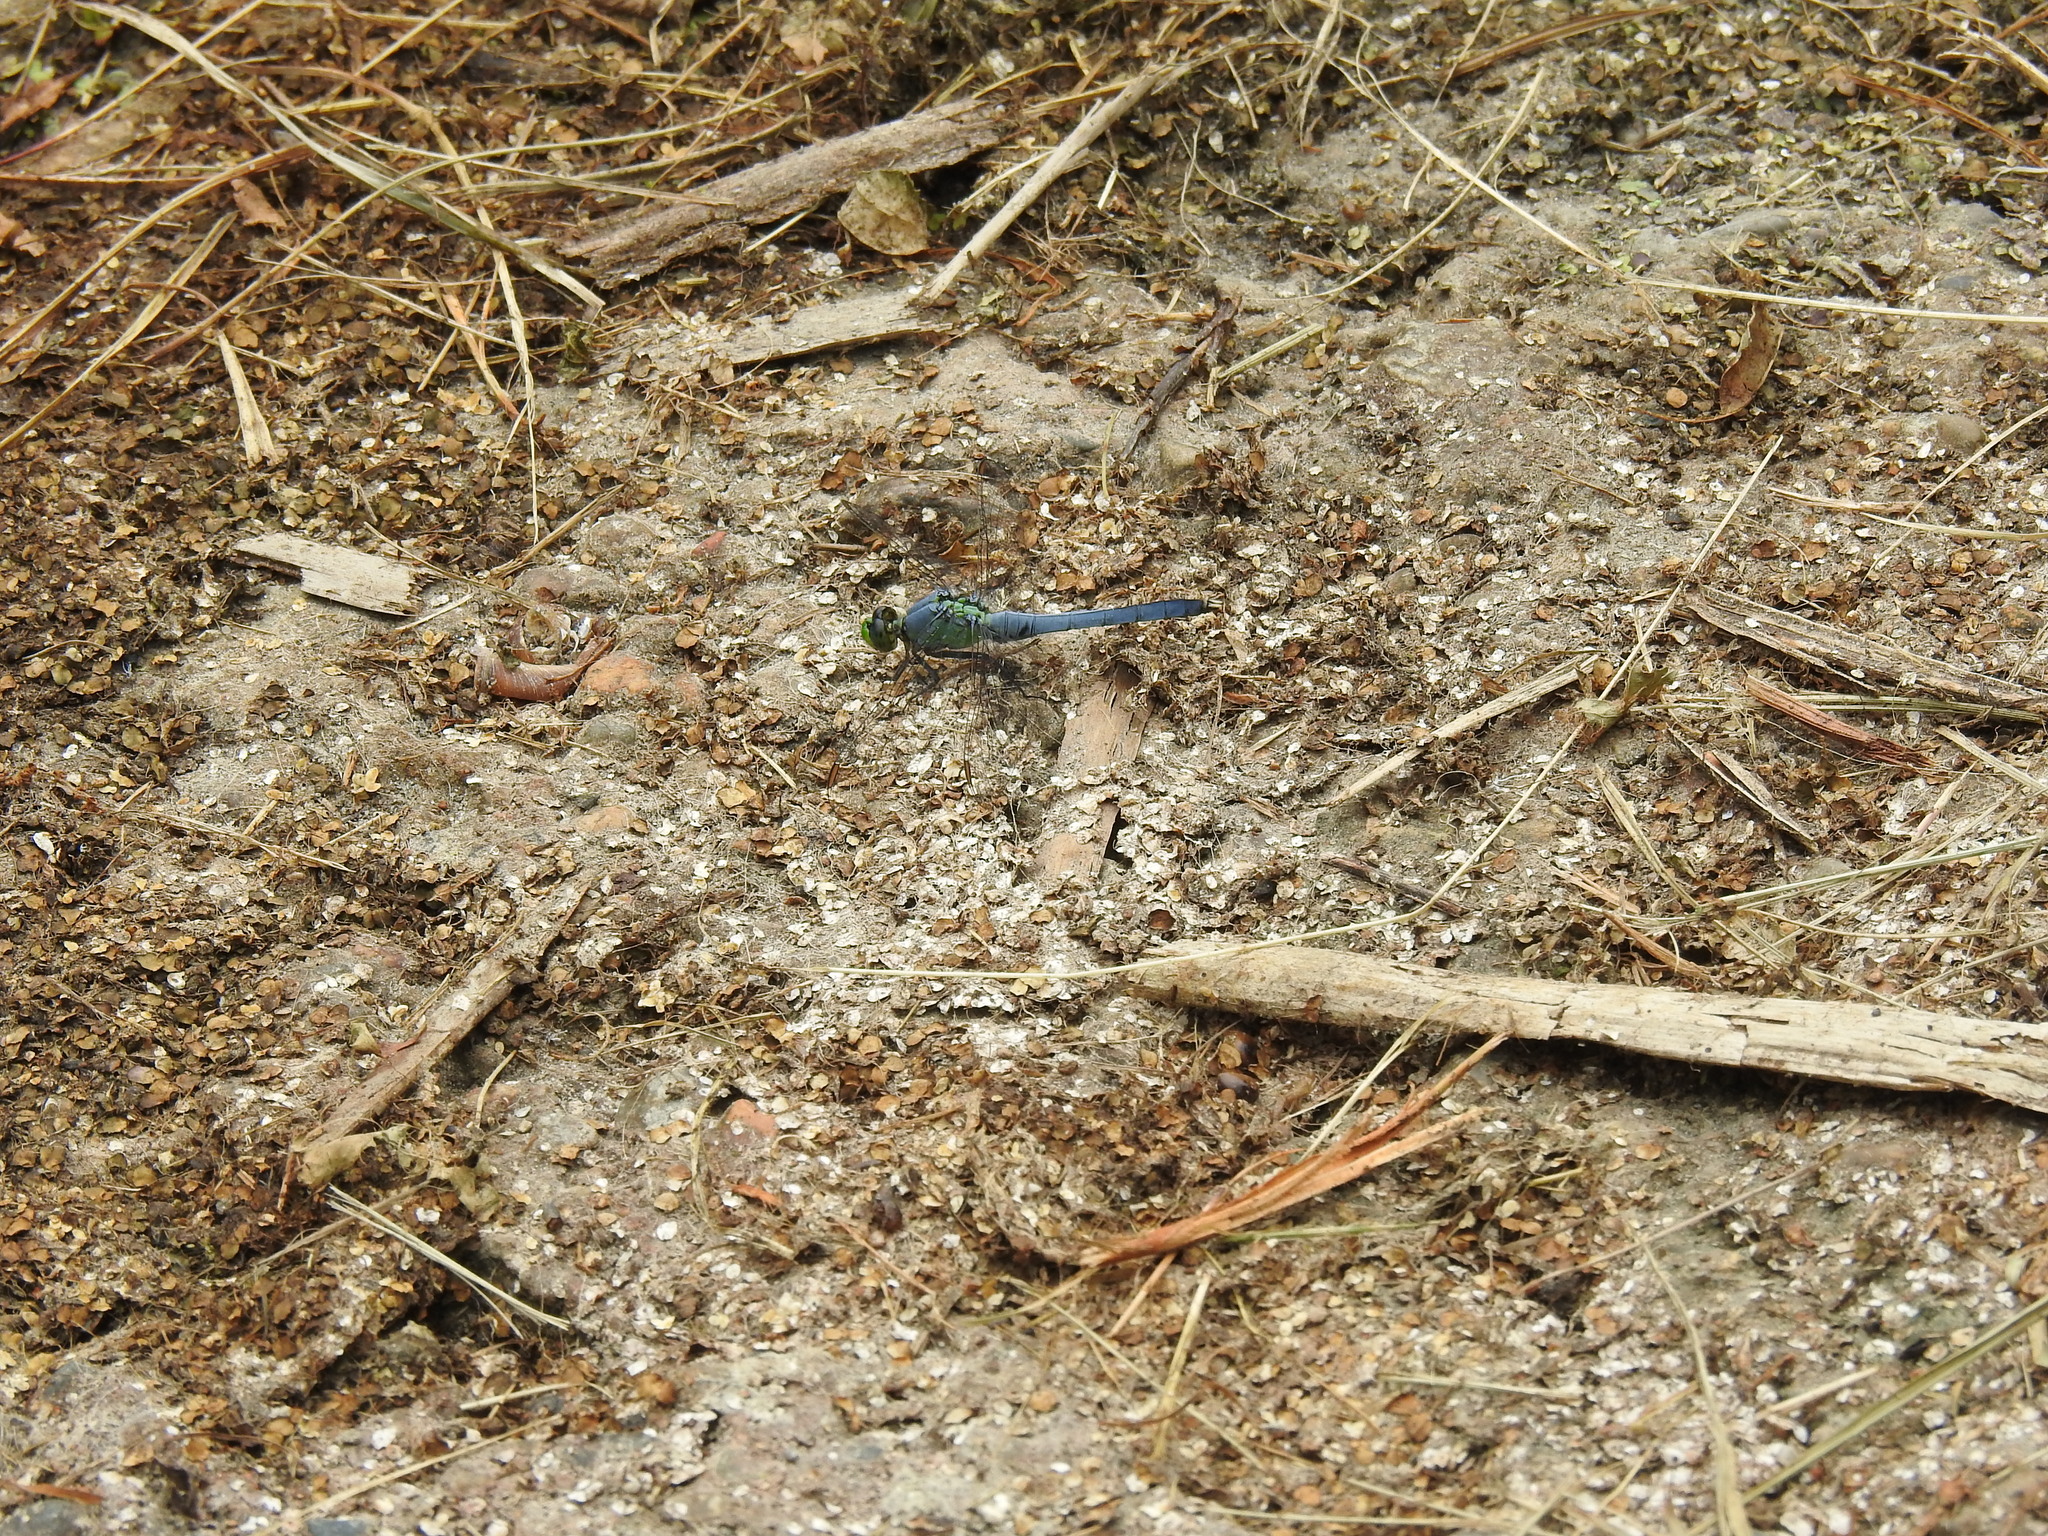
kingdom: Animalia
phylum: Arthropoda
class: Insecta
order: Odonata
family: Libellulidae
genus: Erythemis
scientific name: Erythemis simplicicollis
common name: Eastern pondhawk
